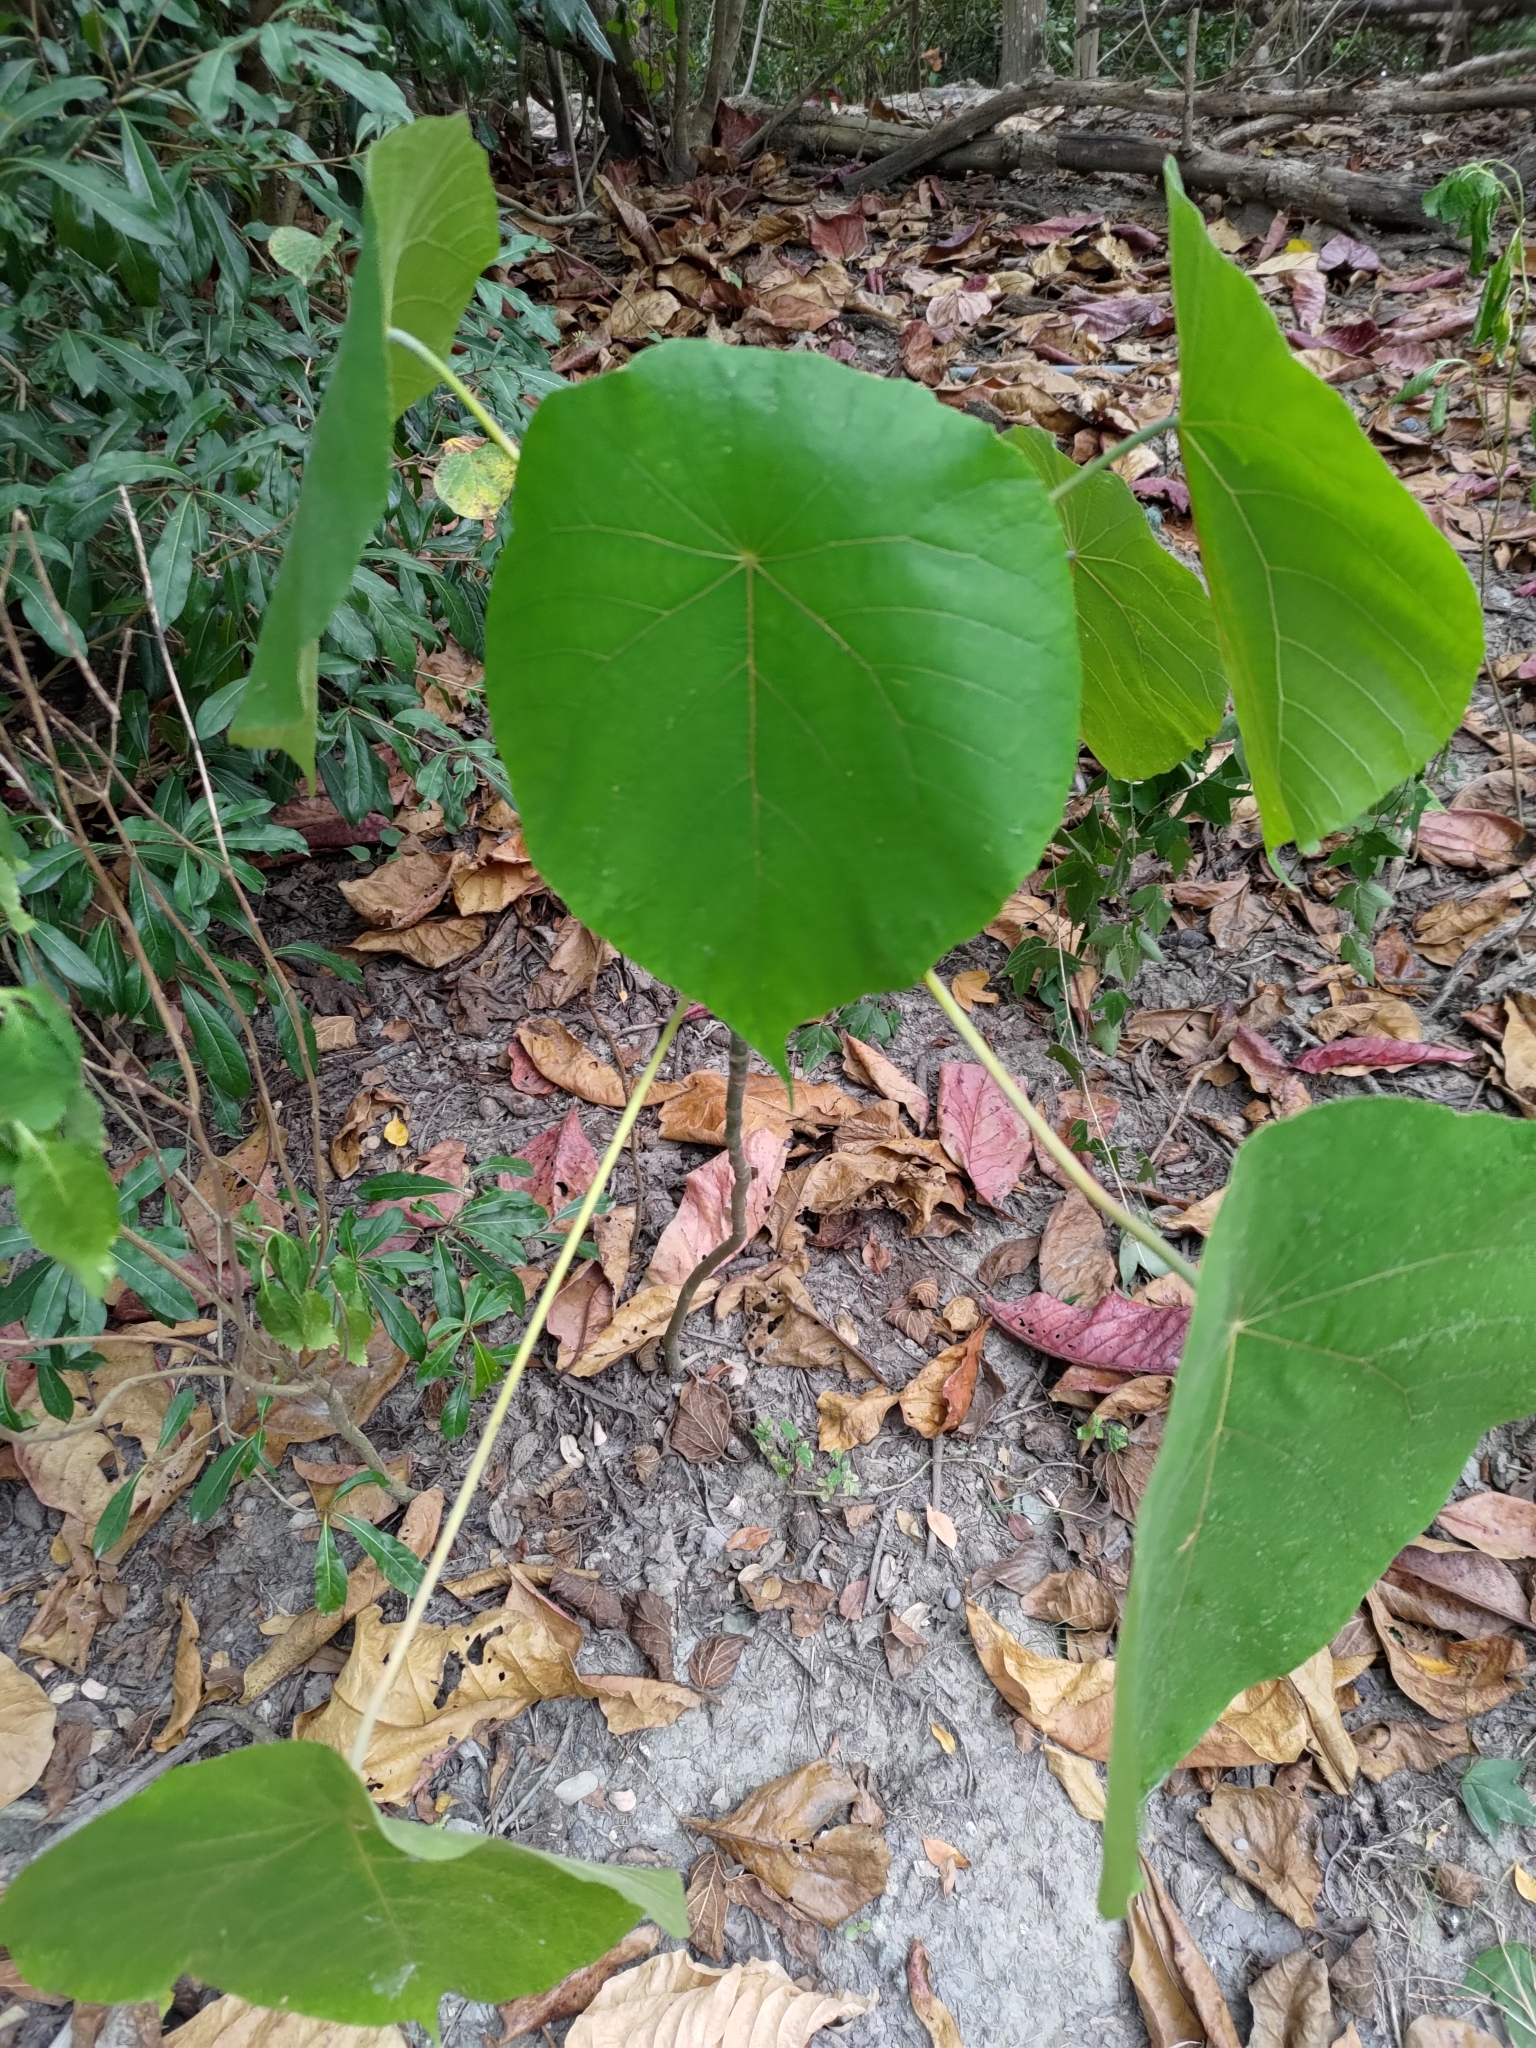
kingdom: Plantae
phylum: Tracheophyta
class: Magnoliopsida
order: Malpighiales
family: Euphorbiaceae
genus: Macaranga
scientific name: Macaranga tanarius
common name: Parasol leaf tree
